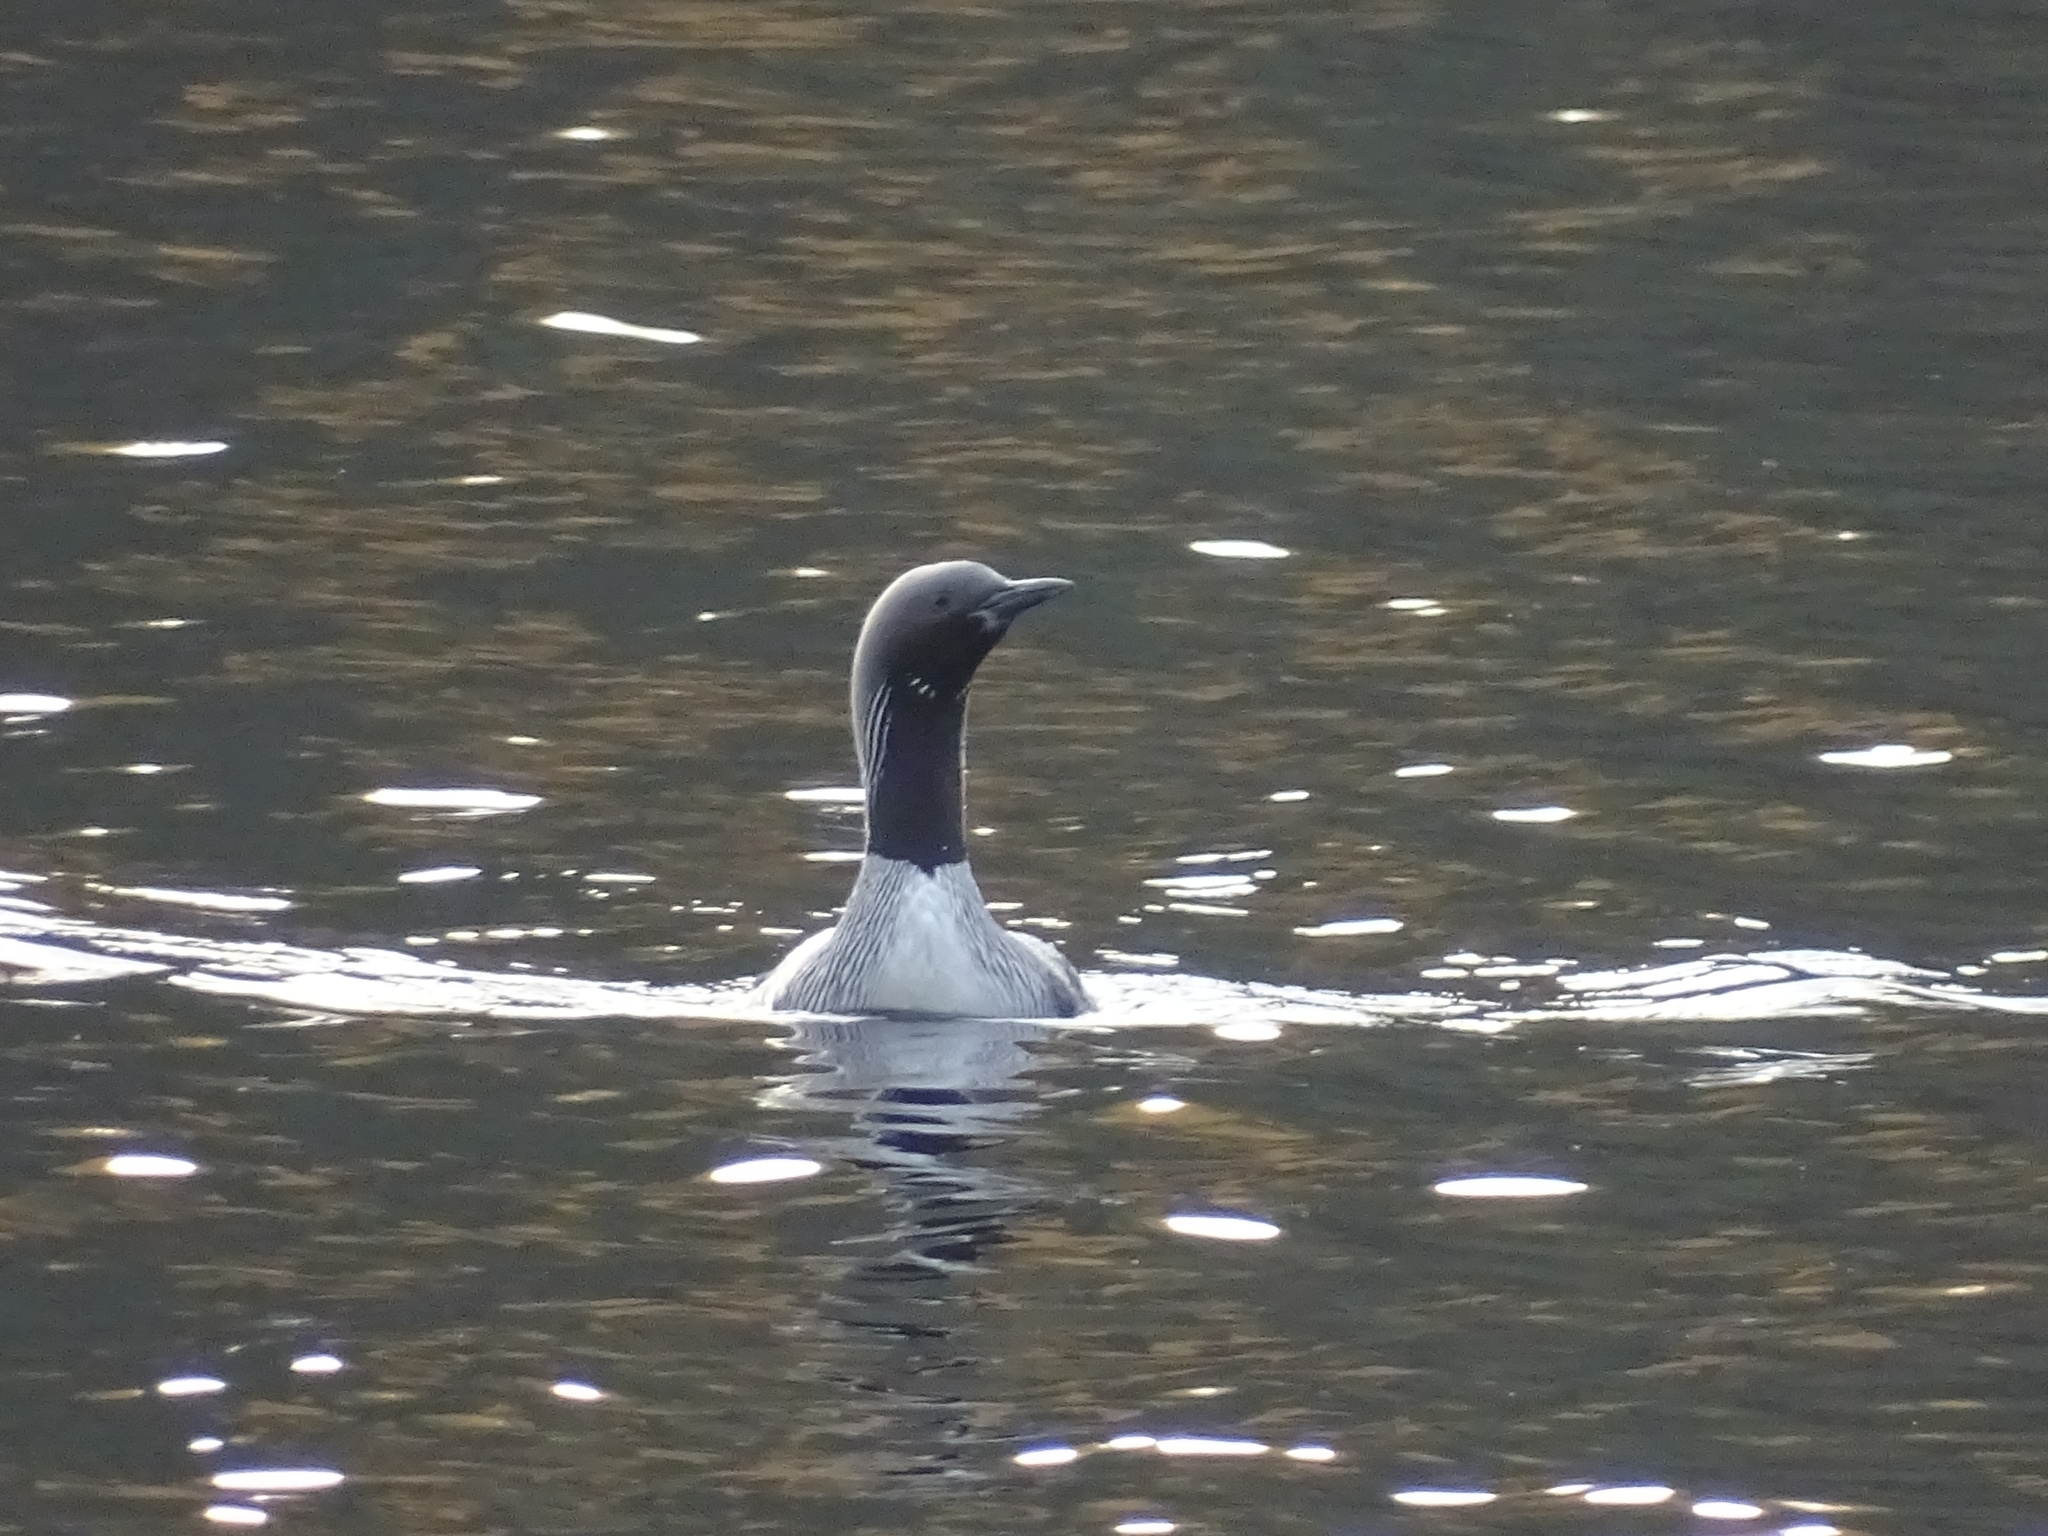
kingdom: Animalia
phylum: Chordata
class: Aves
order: Gaviiformes
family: Gaviidae
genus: Gavia
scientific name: Gavia arctica
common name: Black-throated loon
